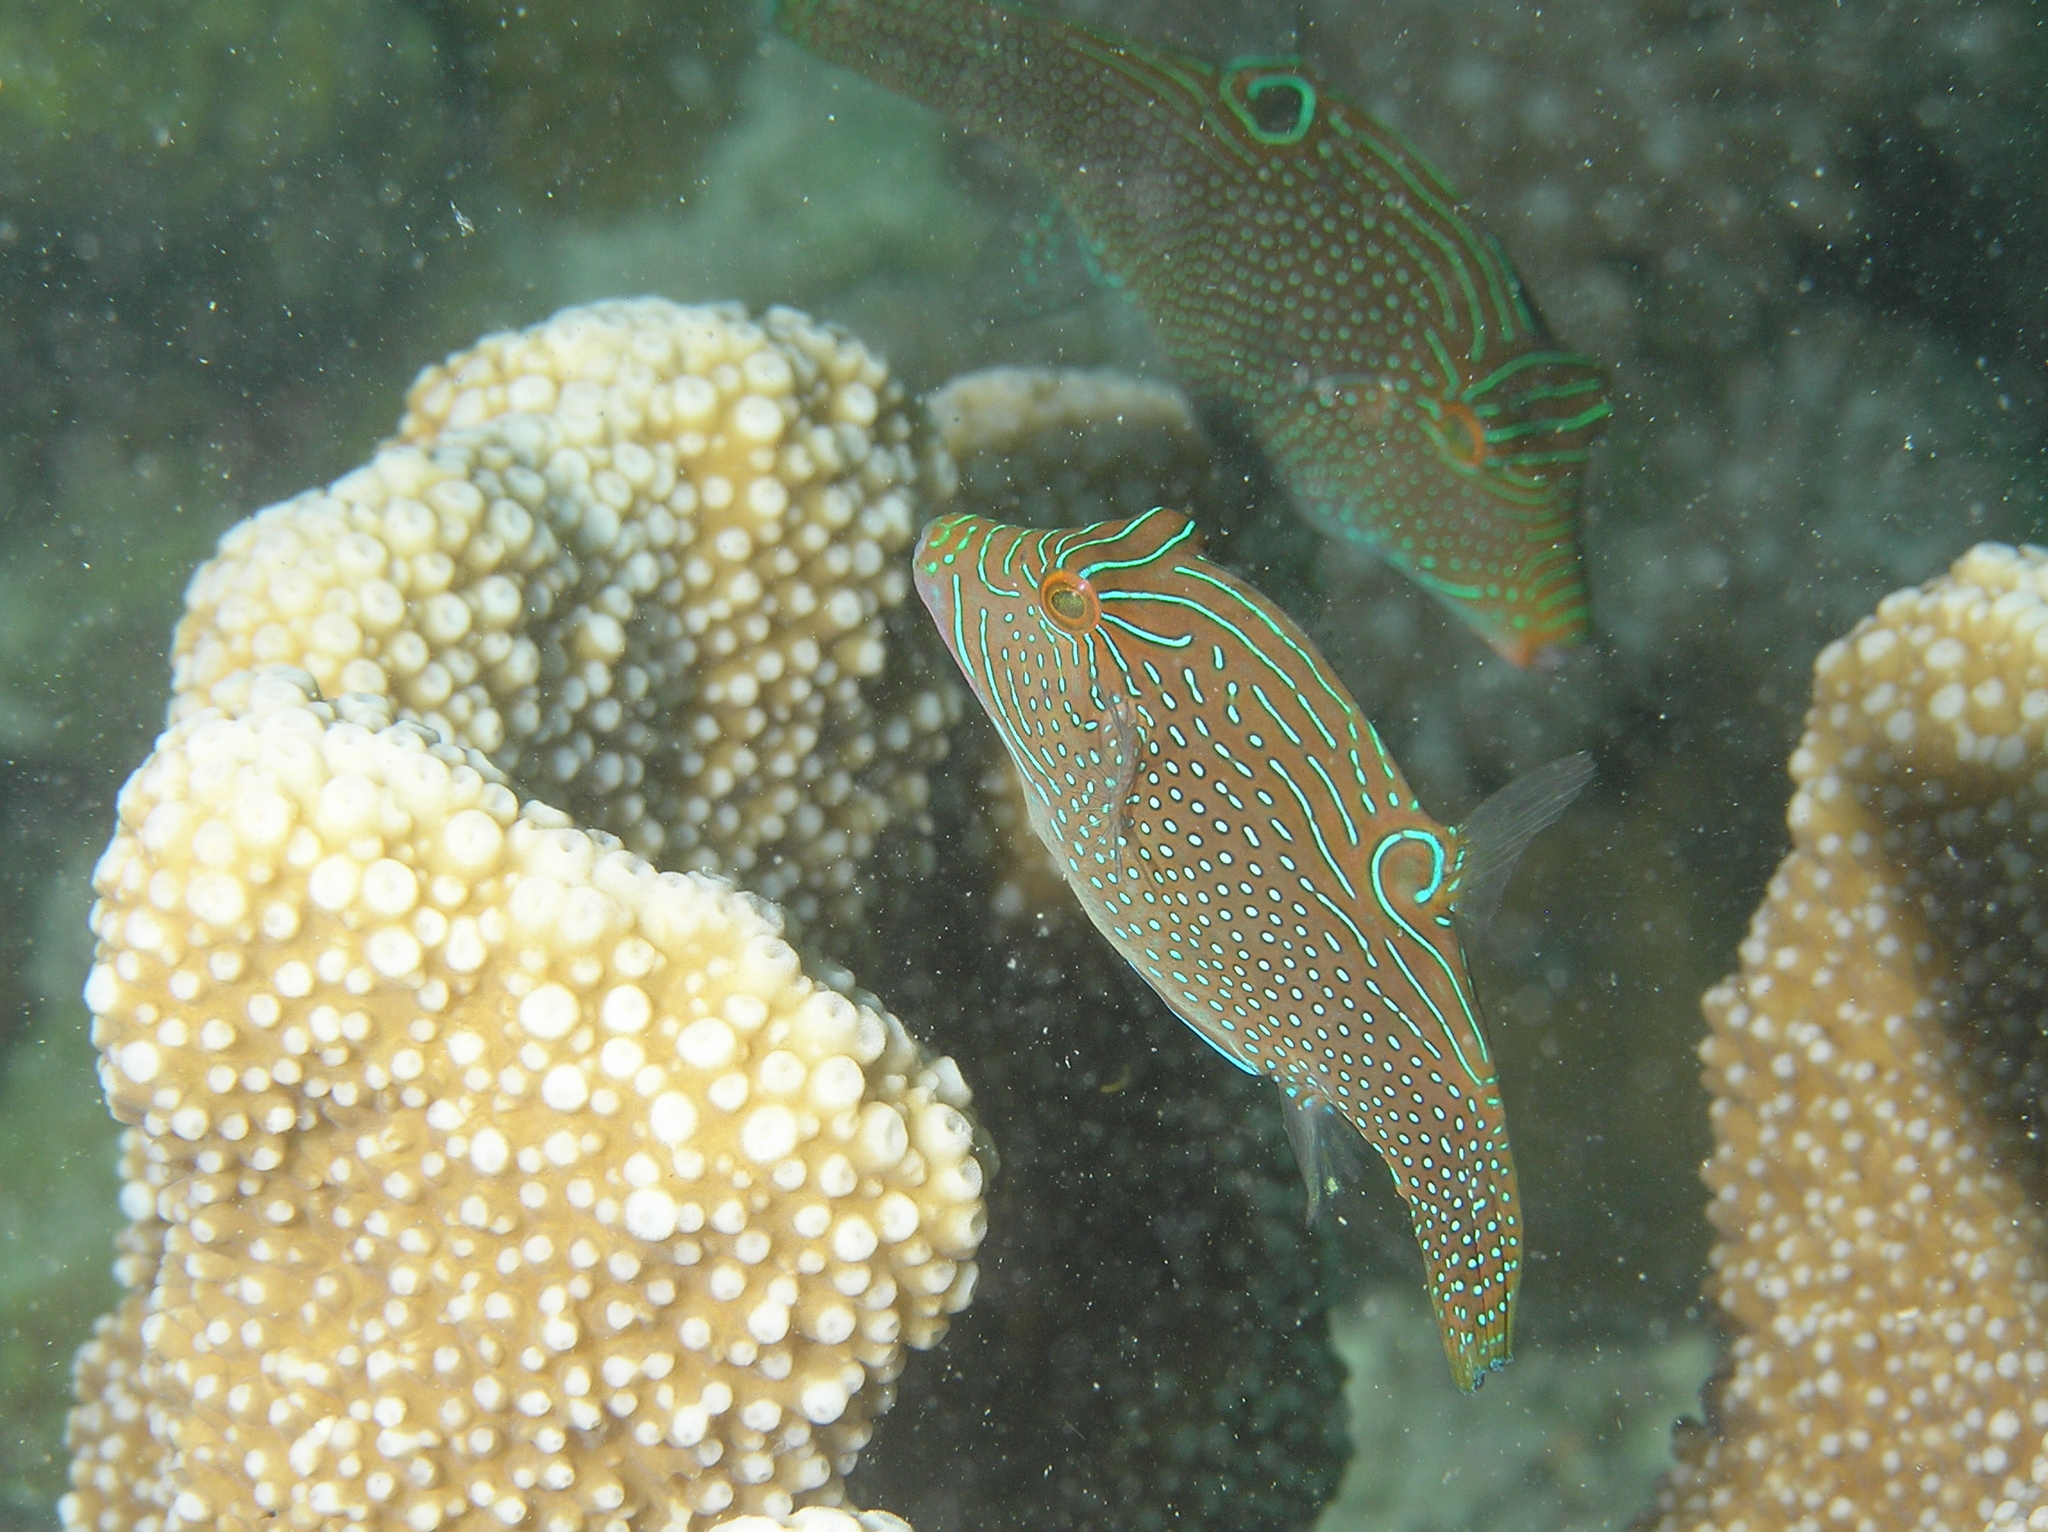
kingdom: Animalia
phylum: Chordata
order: Tetraodontiformes
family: Tetraodontidae
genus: Canthigaster
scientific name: Canthigaster papua
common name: False-eyed pufferfish
